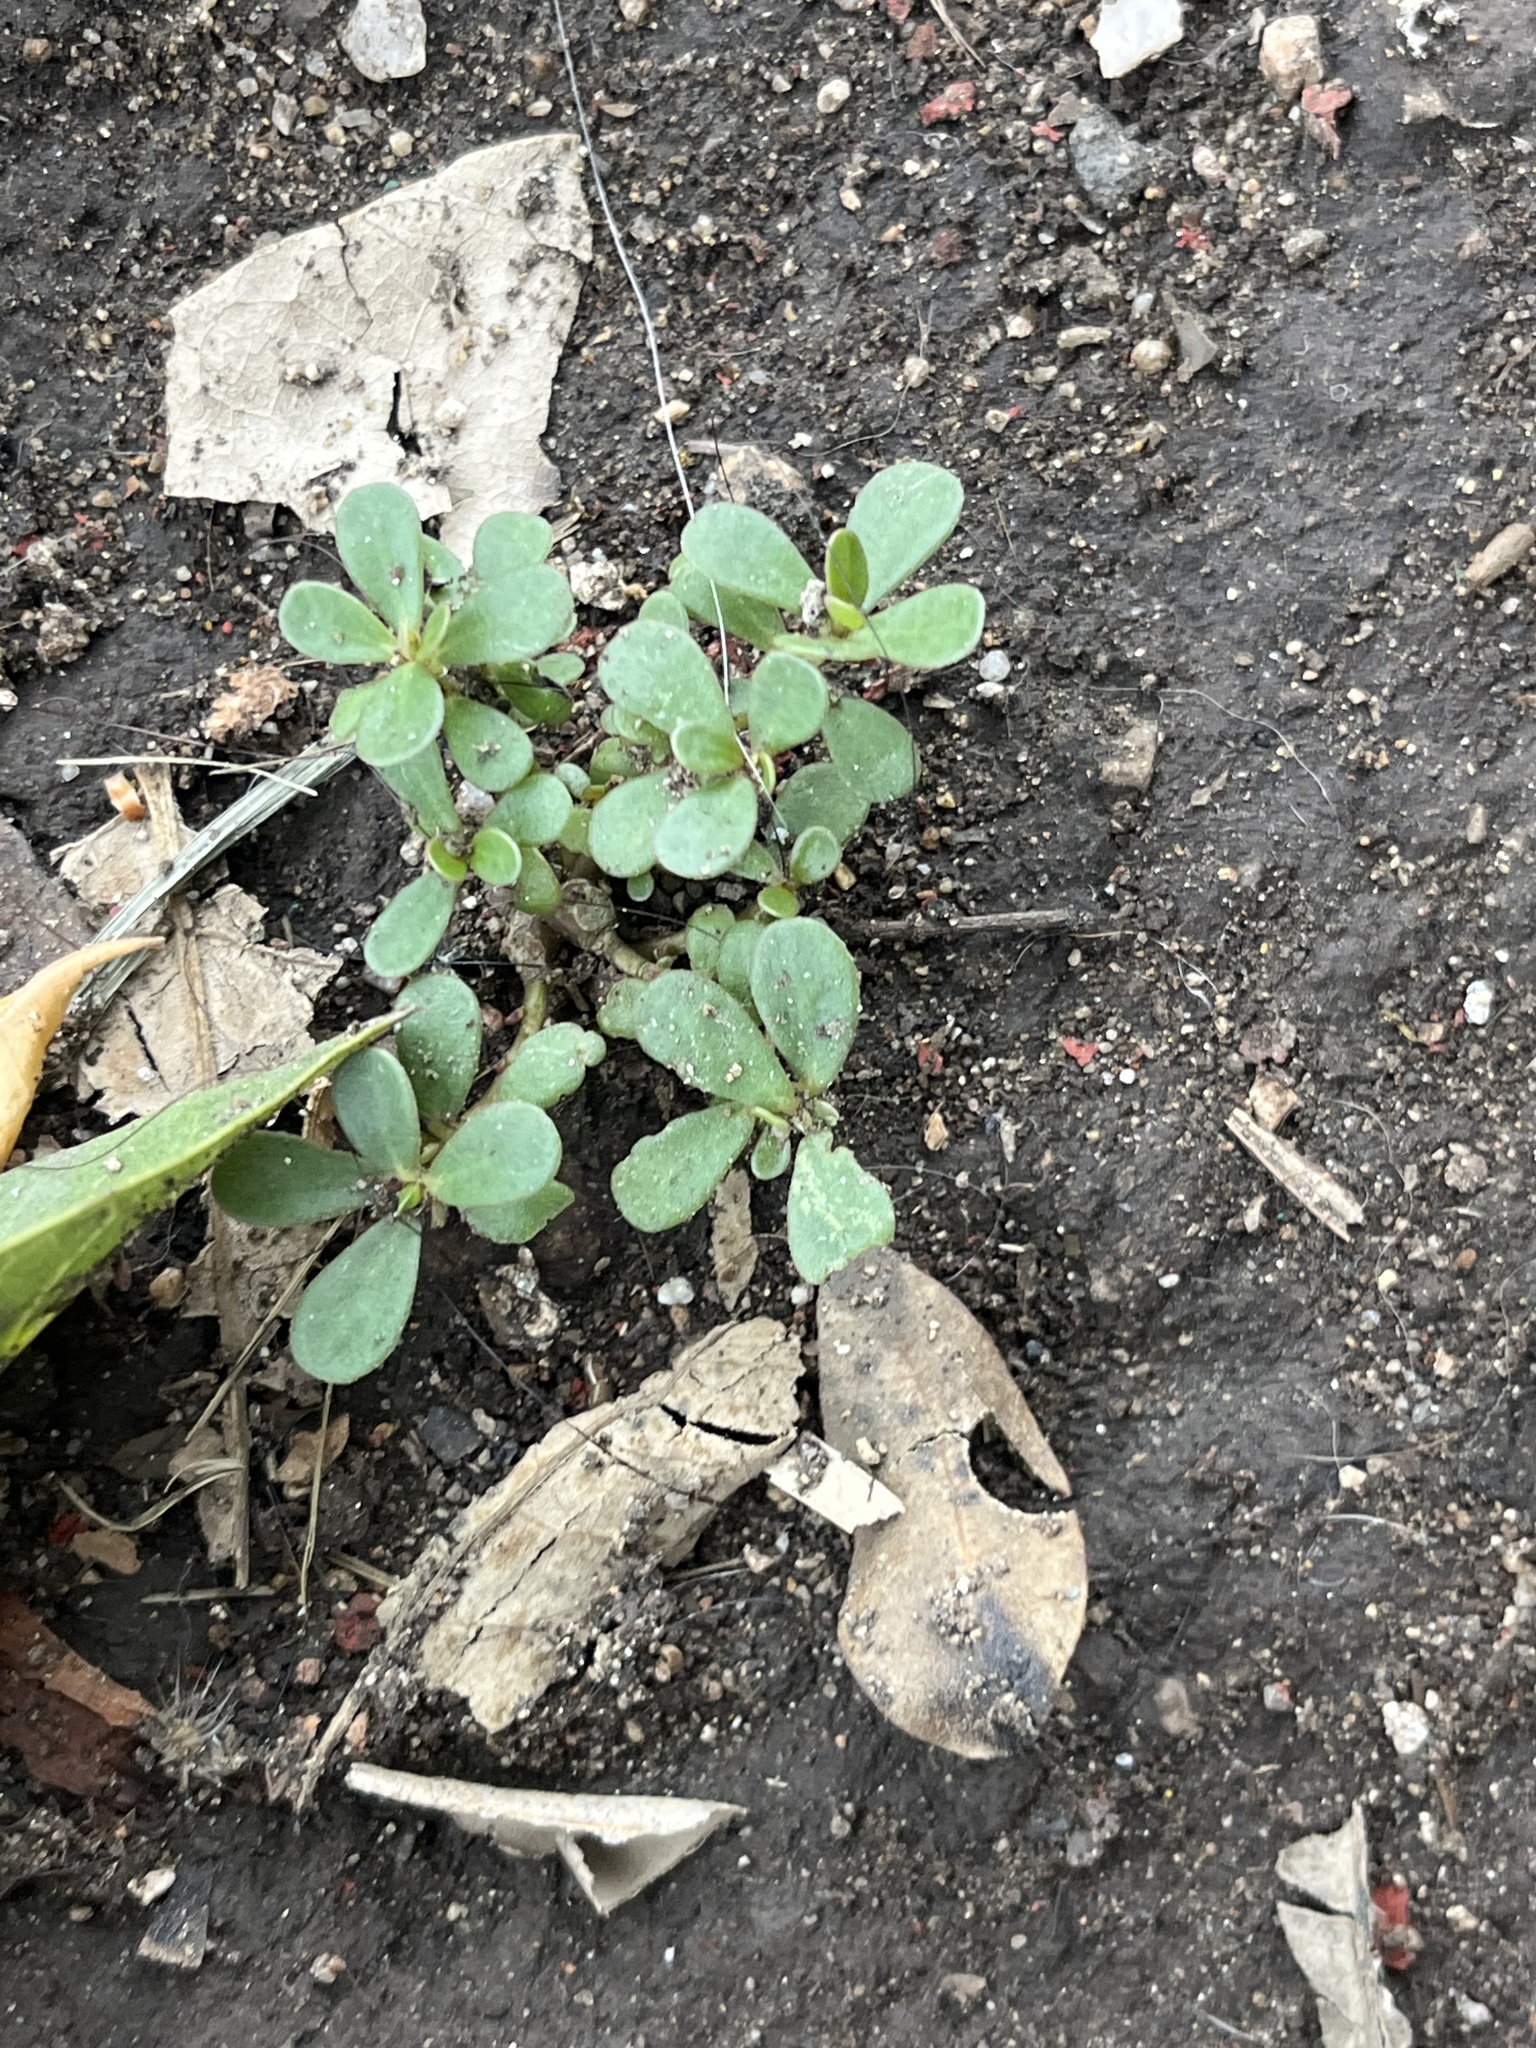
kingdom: Plantae
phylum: Tracheophyta
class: Magnoliopsida
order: Caryophyllales
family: Portulacaceae
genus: Portulaca
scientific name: Portulaca oleracea
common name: Common purslane
